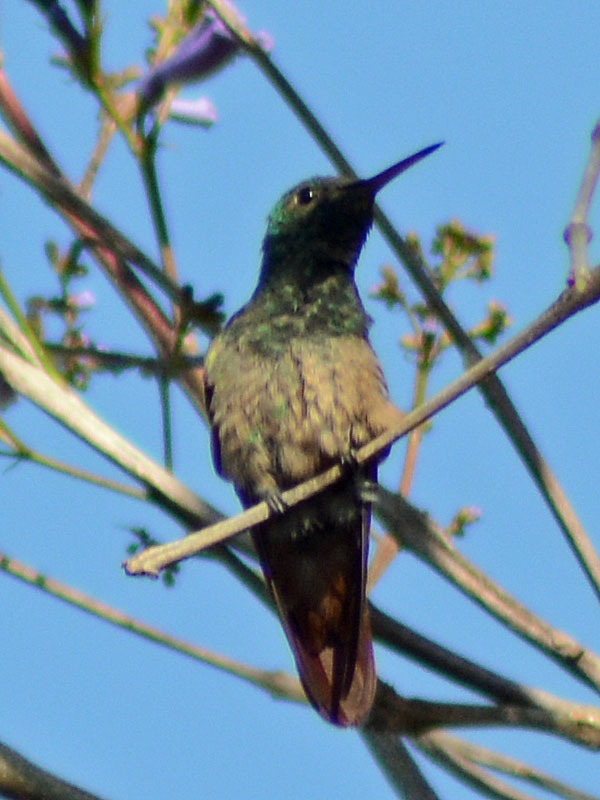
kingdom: Animalia
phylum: Chordata
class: Aves
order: Apodiformes
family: Trochilidae
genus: Saucerottia
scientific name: Saucerottia beryllina
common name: Berylline hummingbird
